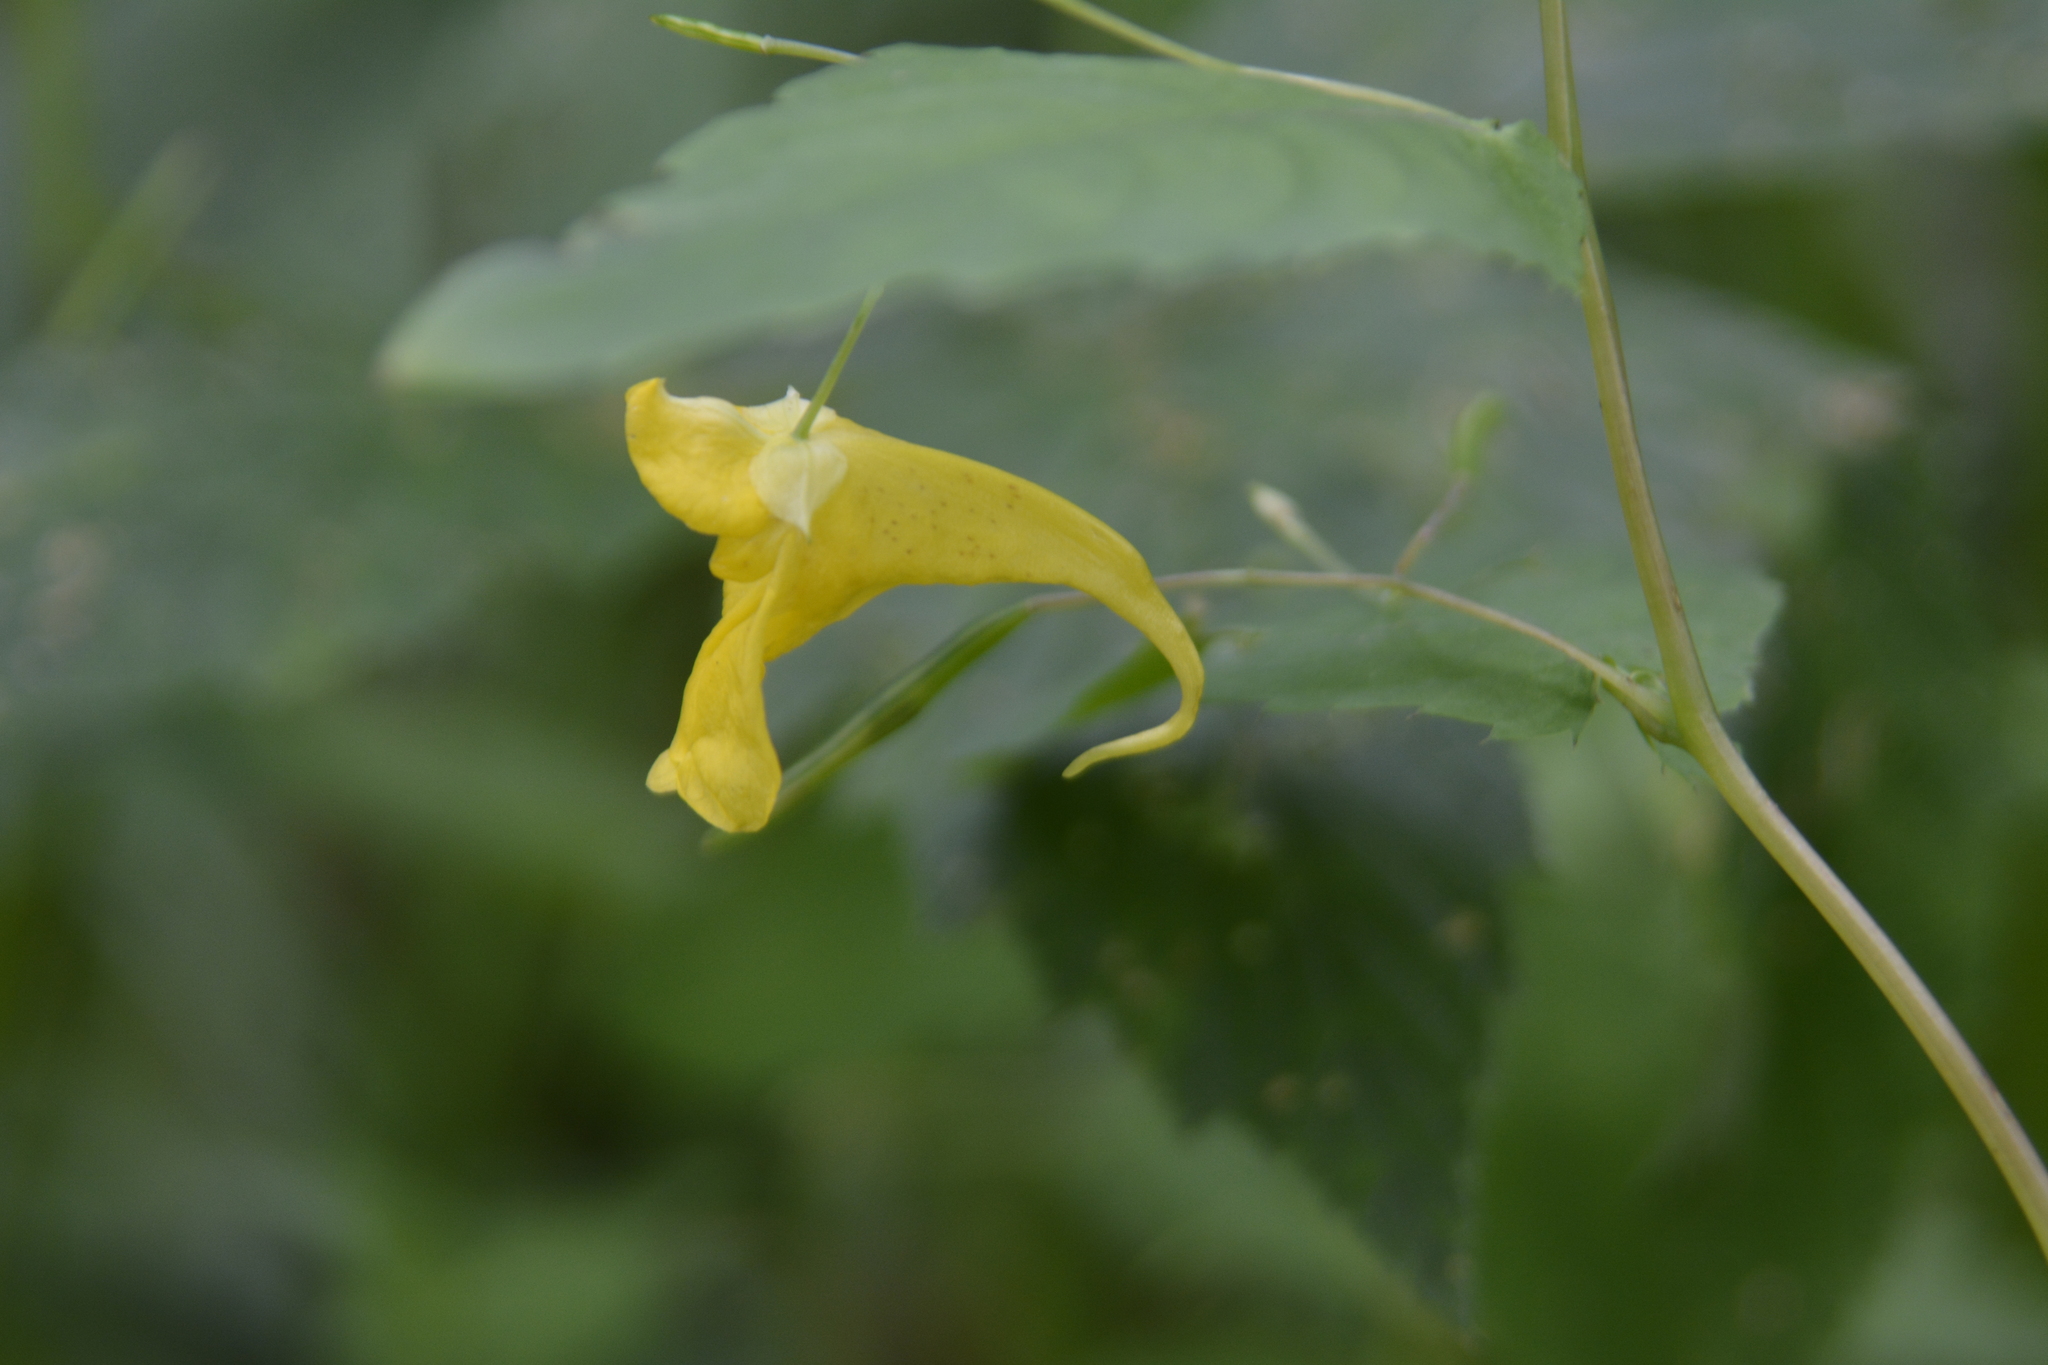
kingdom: Plantae
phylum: Tracheophyta
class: Magnoliopsida
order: Ericales
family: Balsaminaceae
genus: Impatiens
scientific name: Impatiens noli-tangere
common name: Touch-me-not balsam
